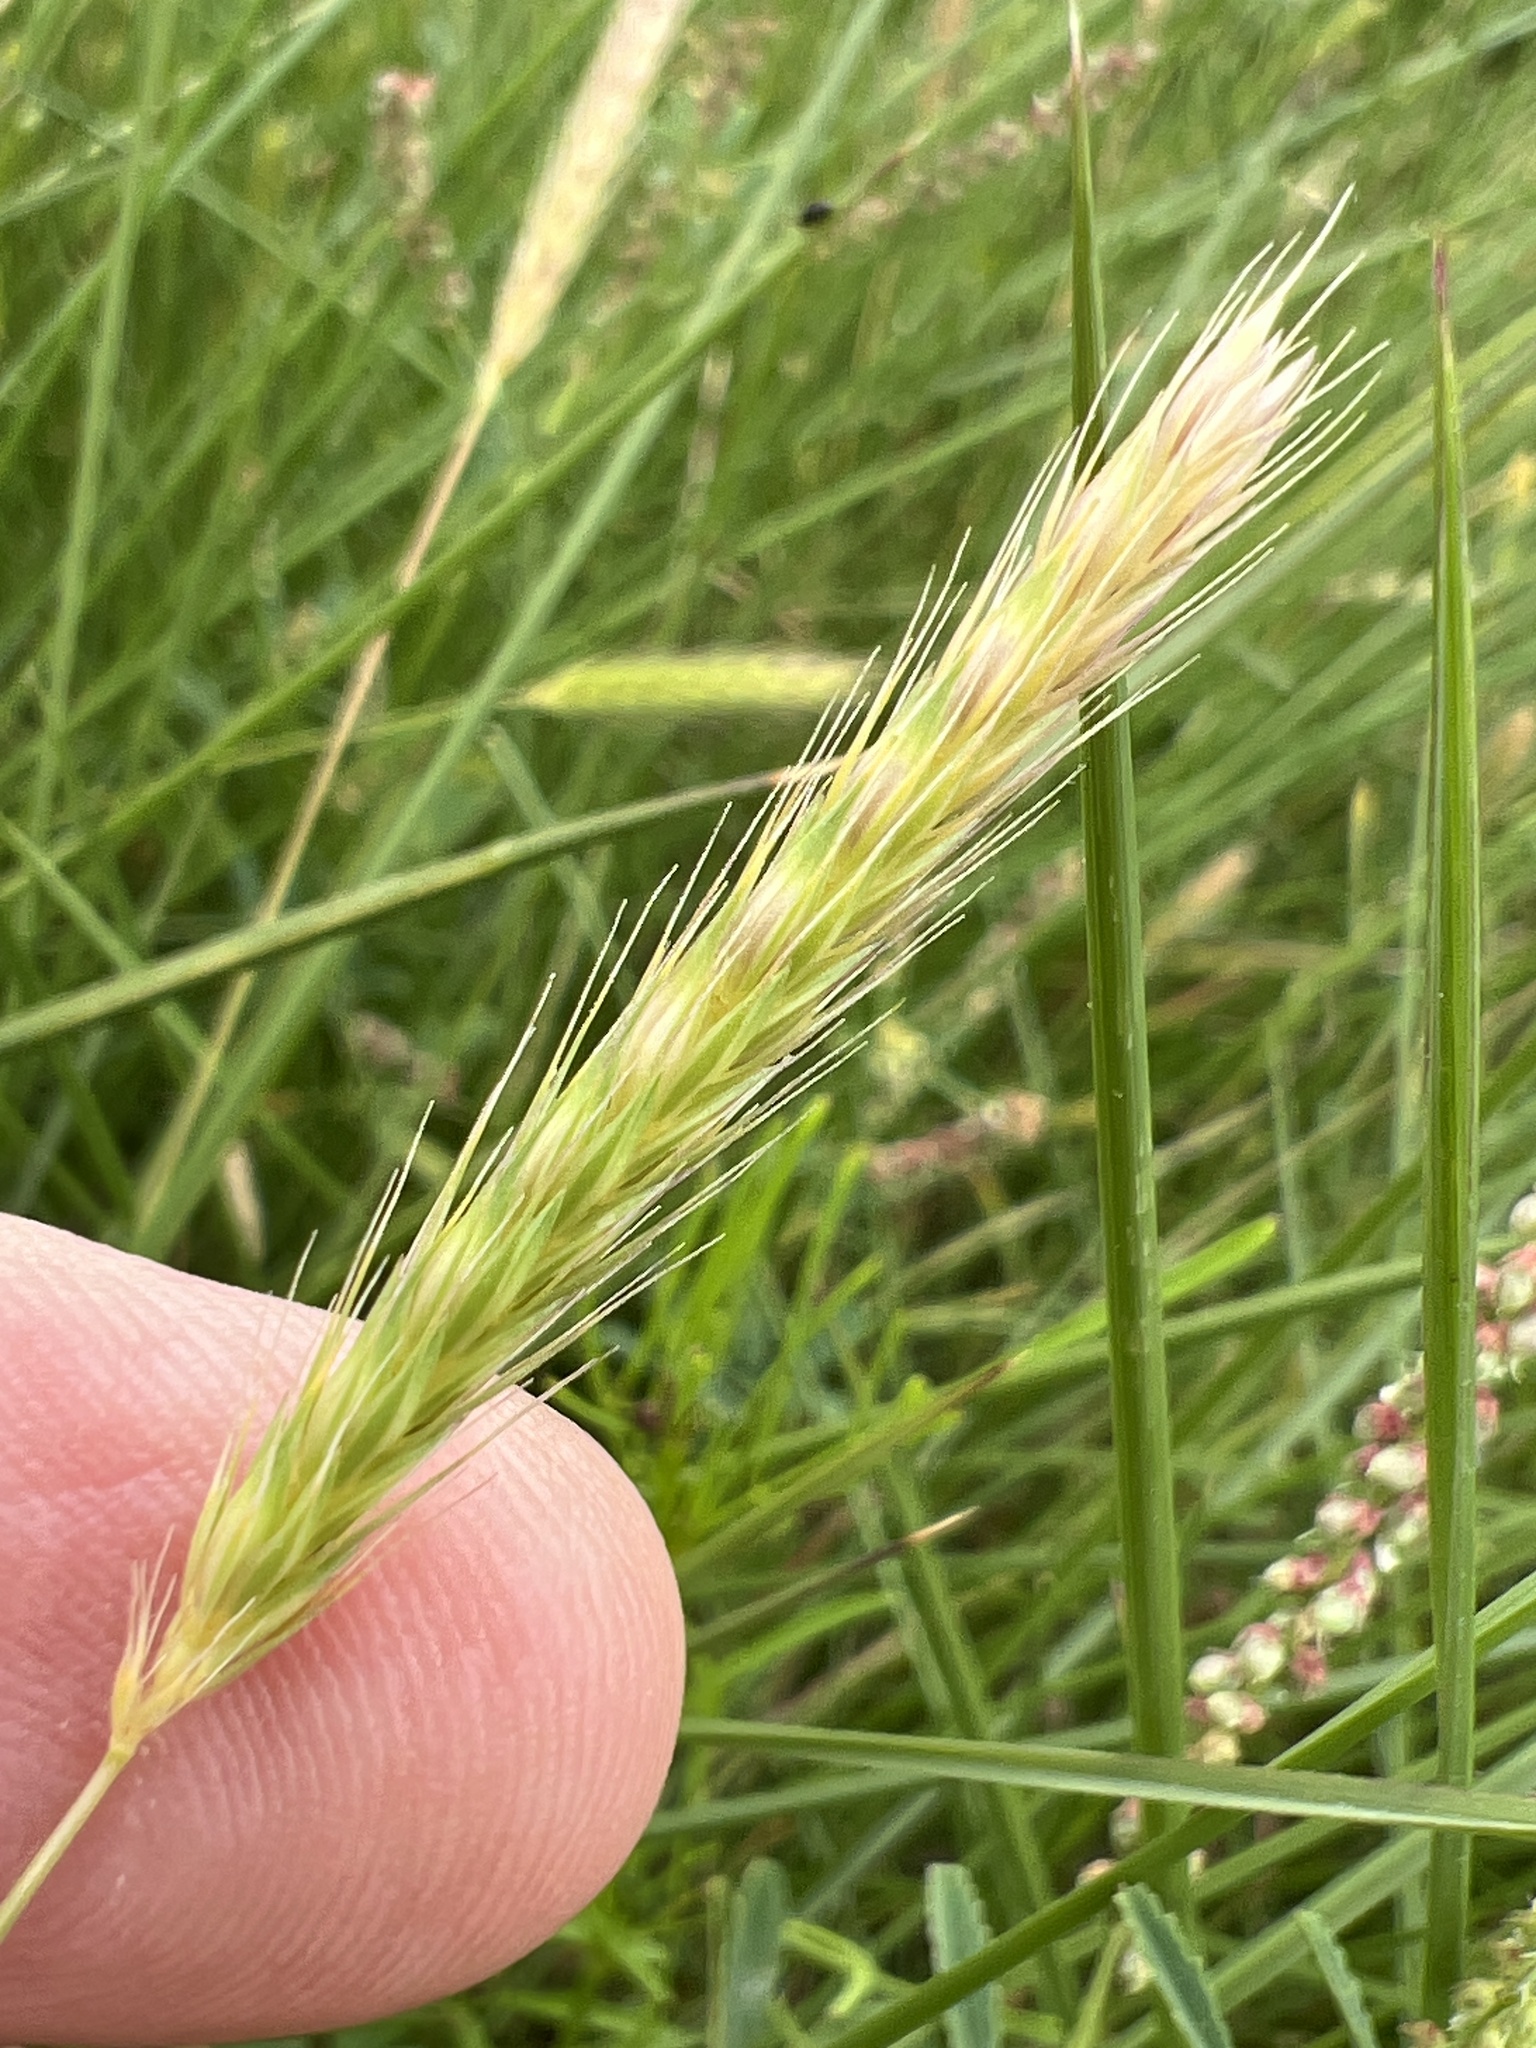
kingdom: Plantae
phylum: Tracheophyta
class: Liliopsida
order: Poales
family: Poaceae
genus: Hordeum
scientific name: Hordeum pusillum
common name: Little barley
